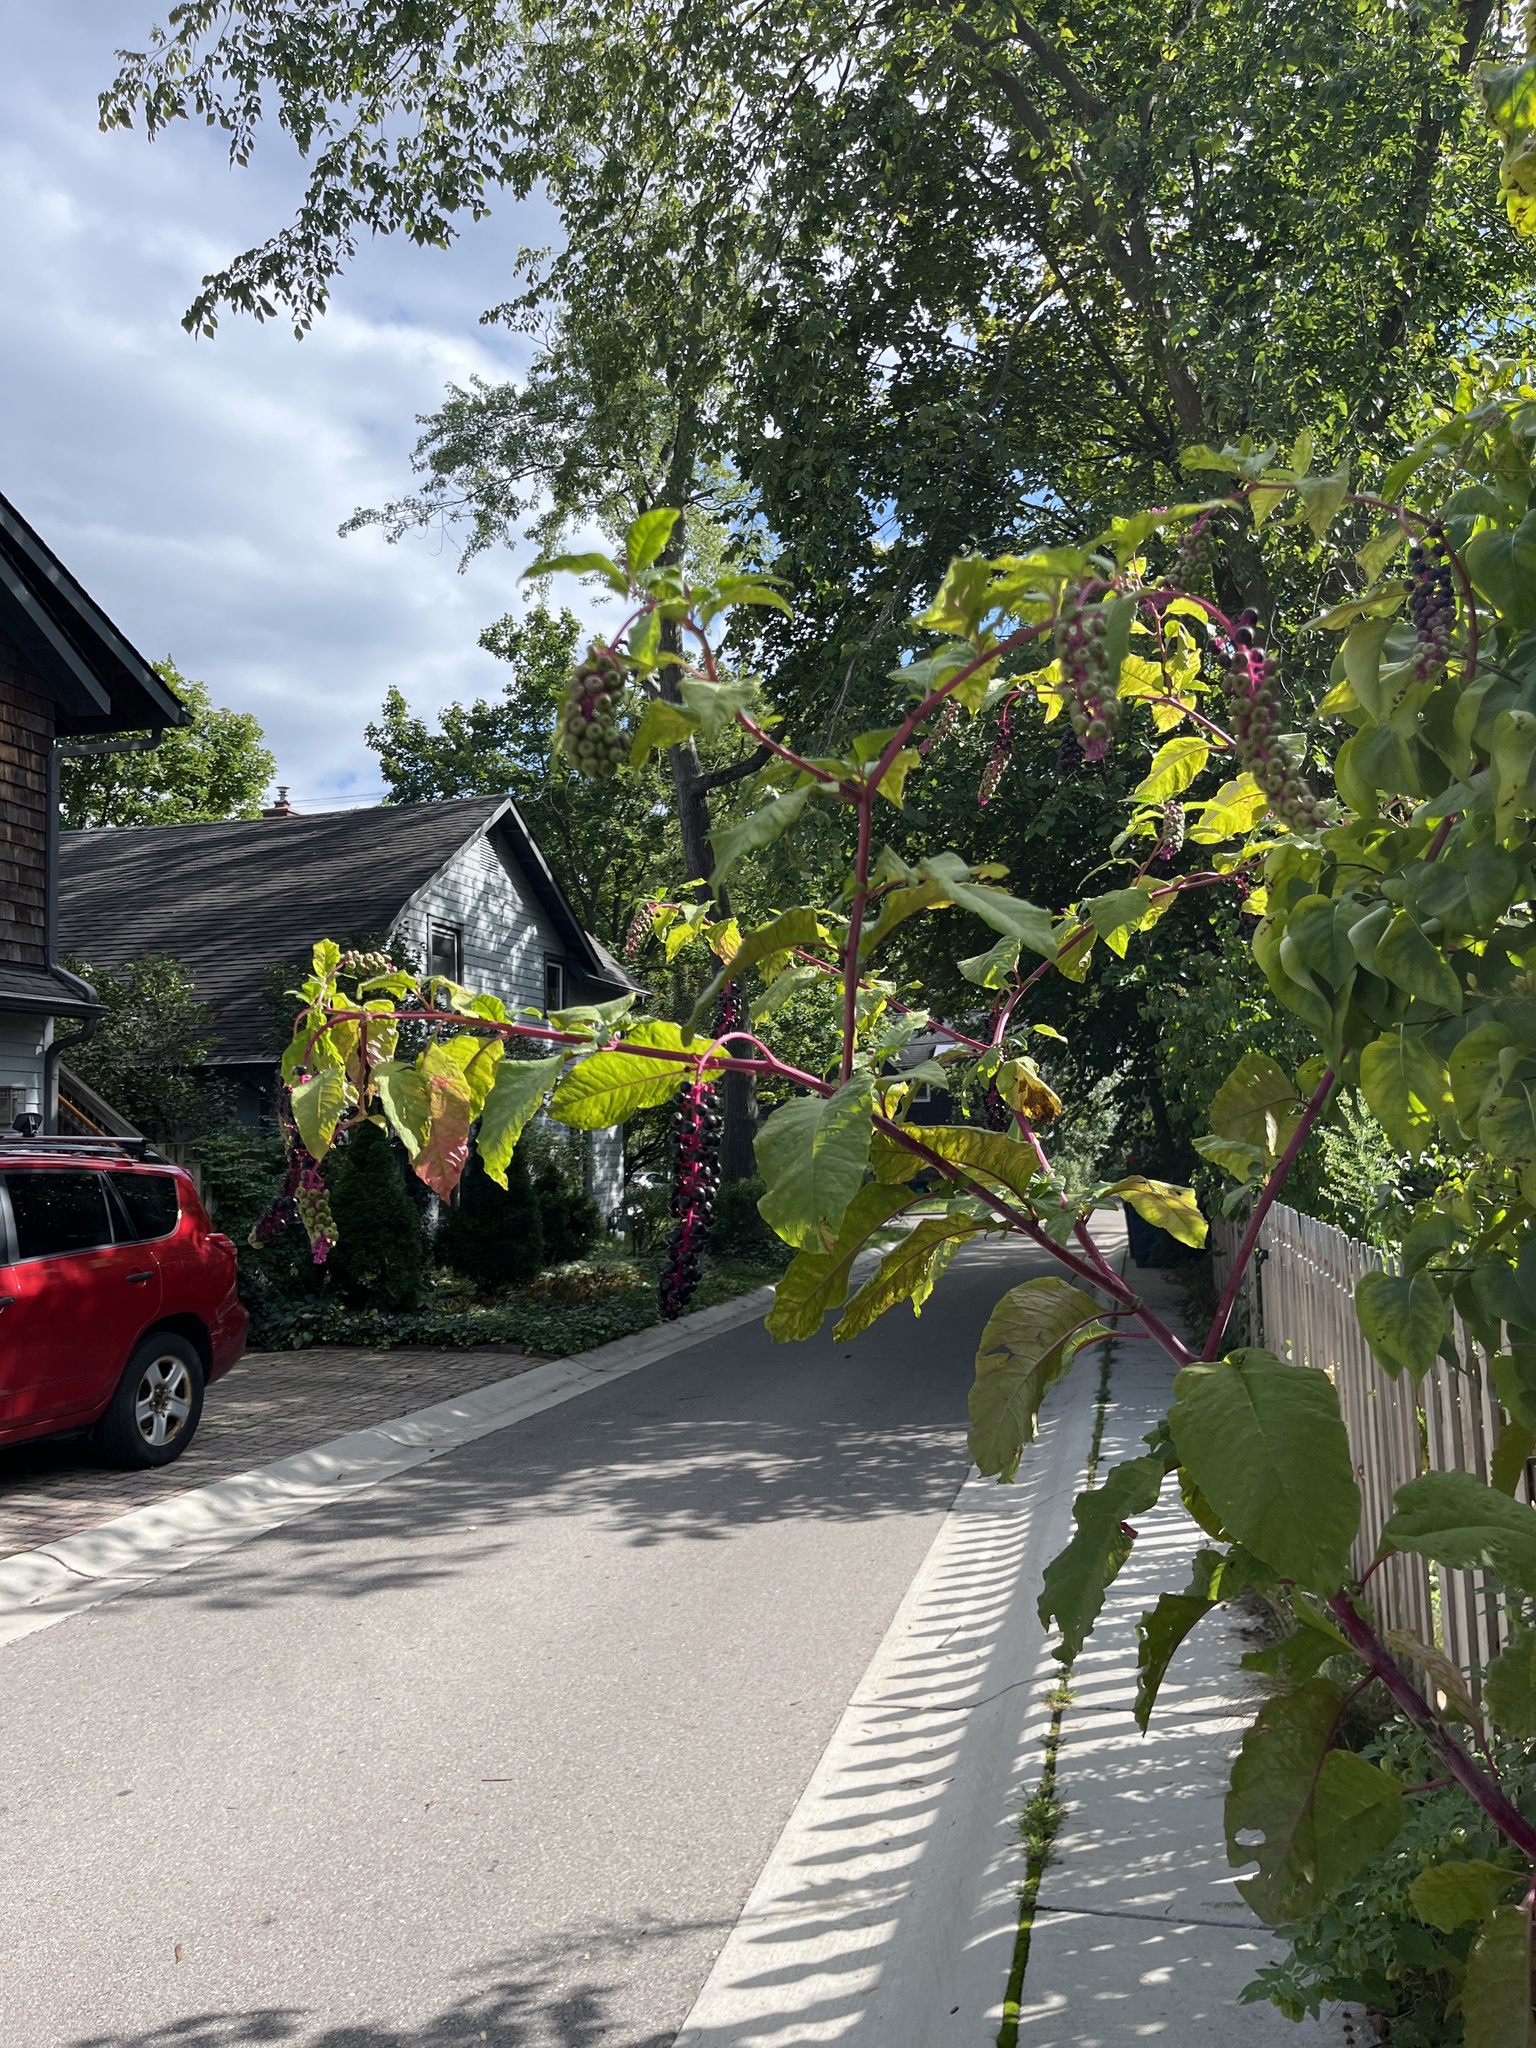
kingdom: Plantae
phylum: Tracheophyta
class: Magnoliopsida
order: Caryophyllales
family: Phytolaccaceae
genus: Phytolacca
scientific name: Phytolacca americana
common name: American pokeweed
